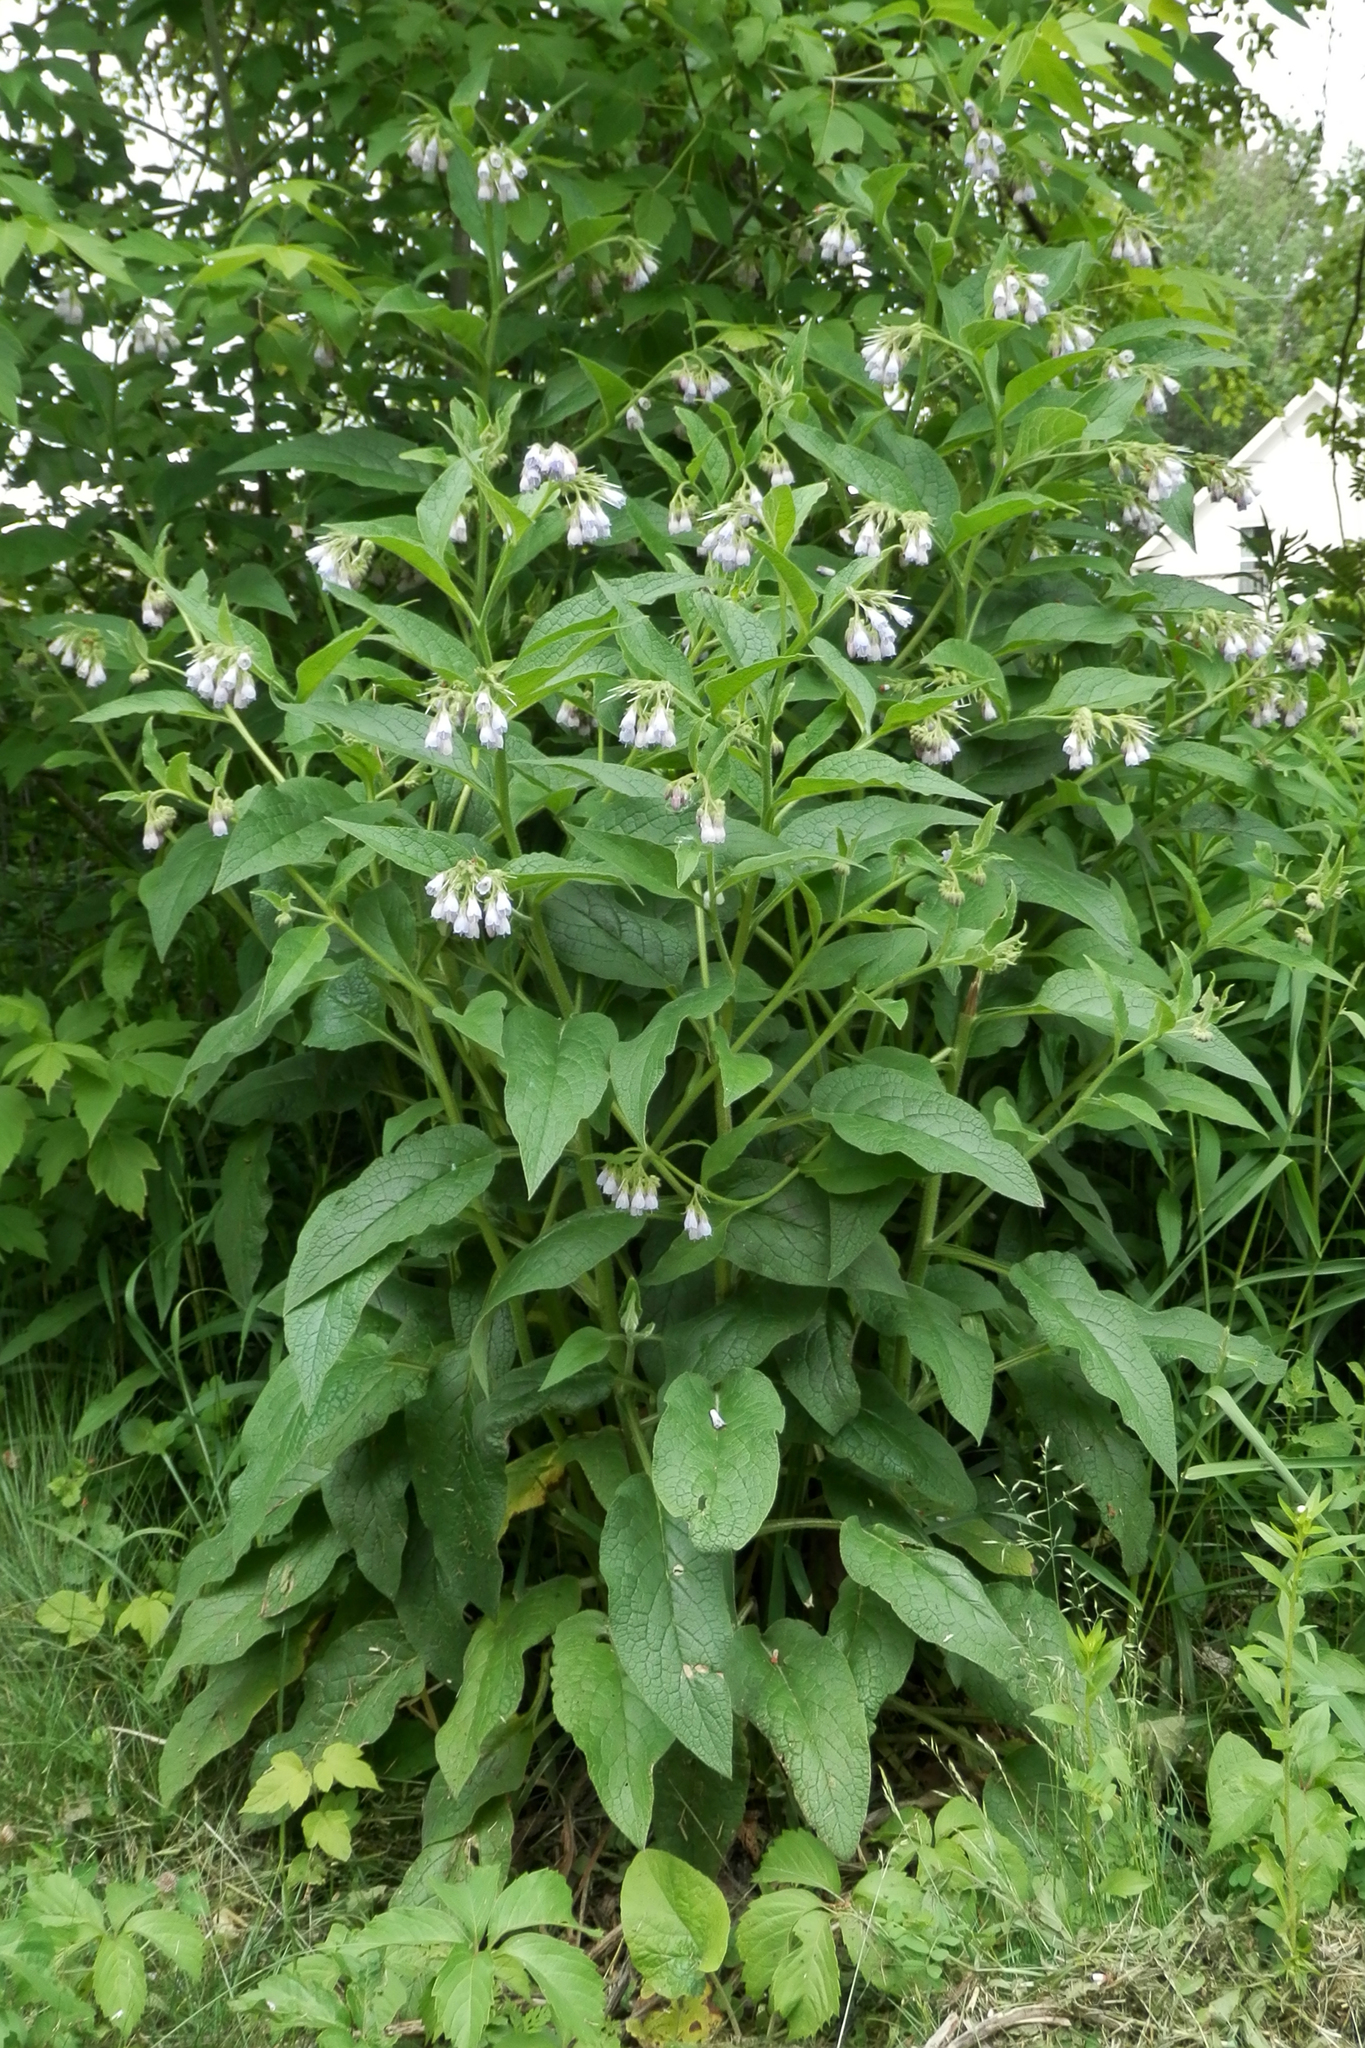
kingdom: Plantae
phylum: Tracheophyta
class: Magnoliopsida
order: Boraginales
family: Boraginaceae
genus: Symphytum
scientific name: Symphytum officinale
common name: Common comfrey
